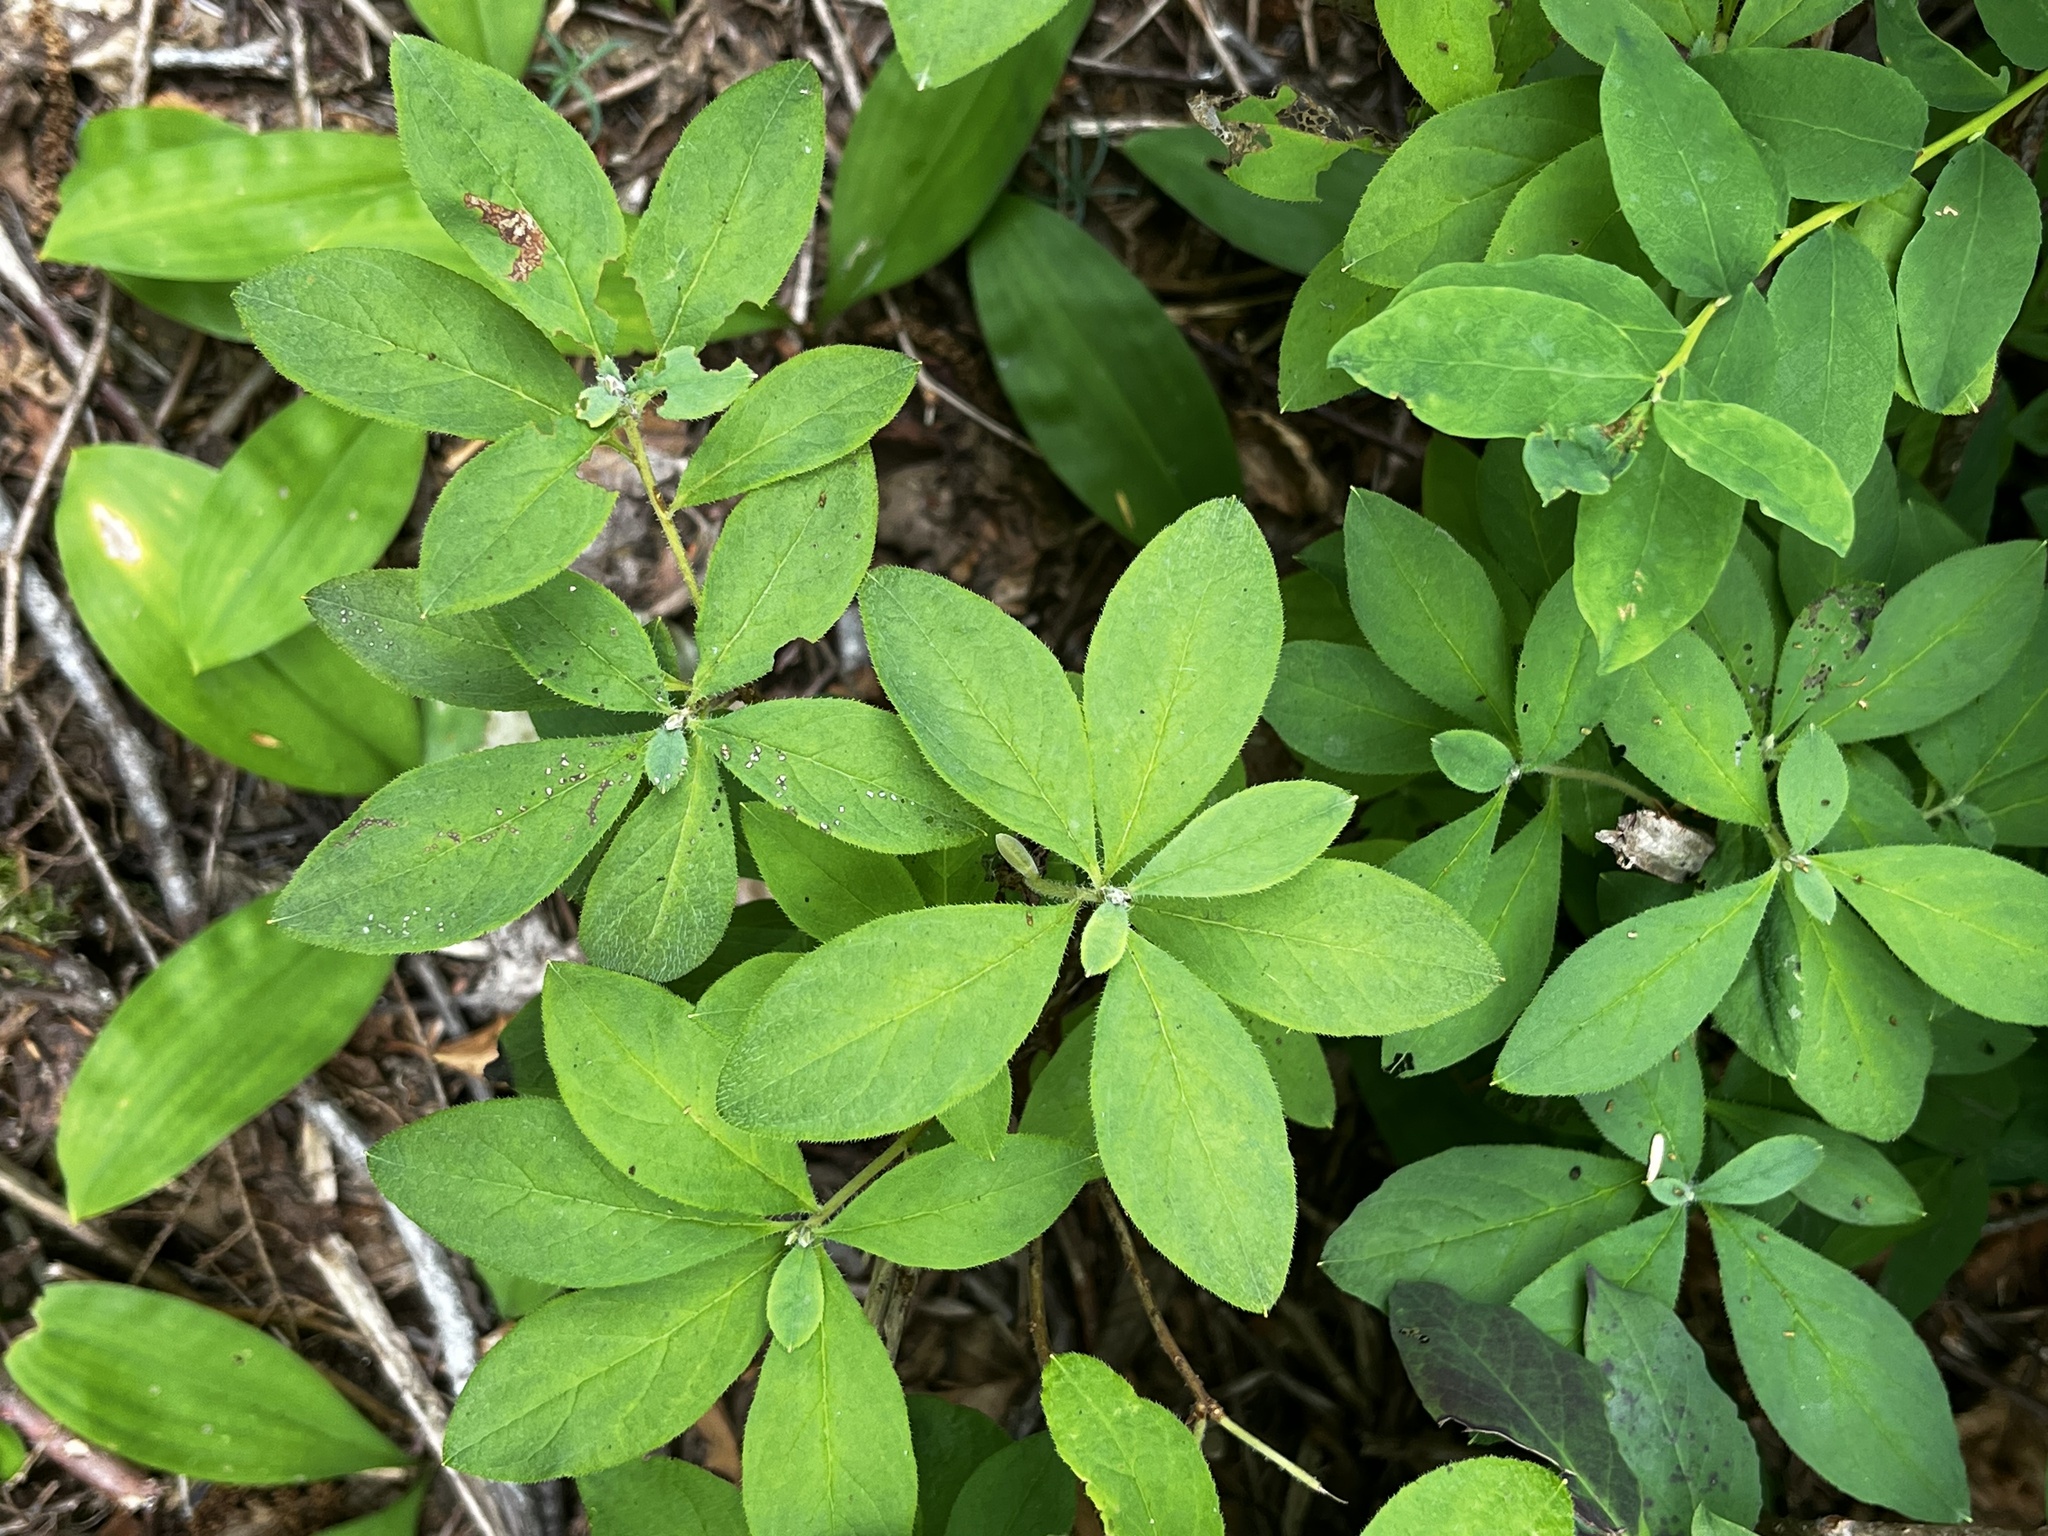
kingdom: Plantae
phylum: Tracheophyta
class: Magnoliopsida
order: Ericales
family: Ericaceae
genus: Rhododendron
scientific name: Rhododendron menziesii
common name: Pacific menziesia
